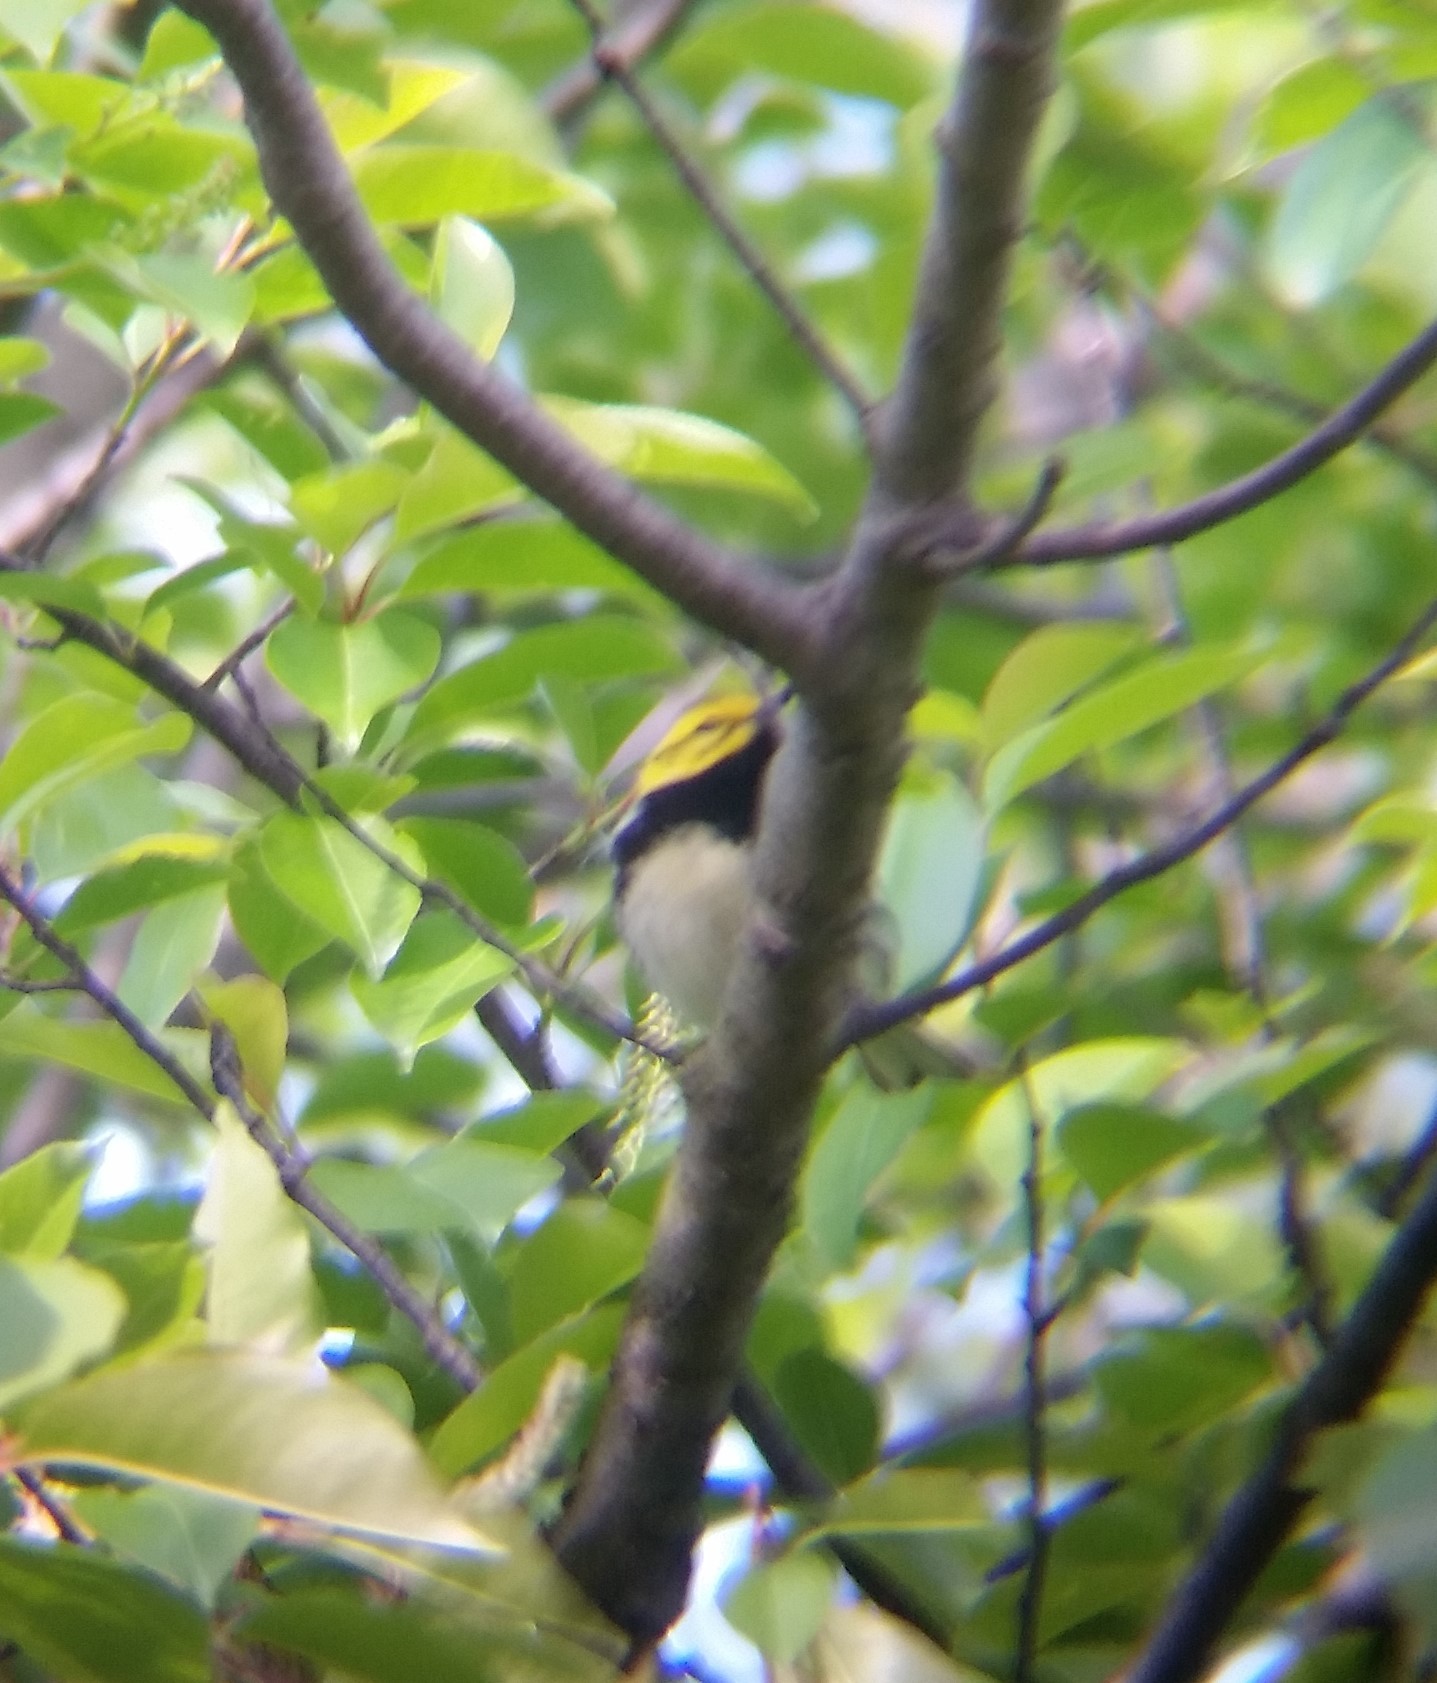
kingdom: Animalia
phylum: Chordata
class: Aves
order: Passeriformes
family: Parulidae
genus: Setophaga
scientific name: Setophaga virens
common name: Black-throated green warbler
